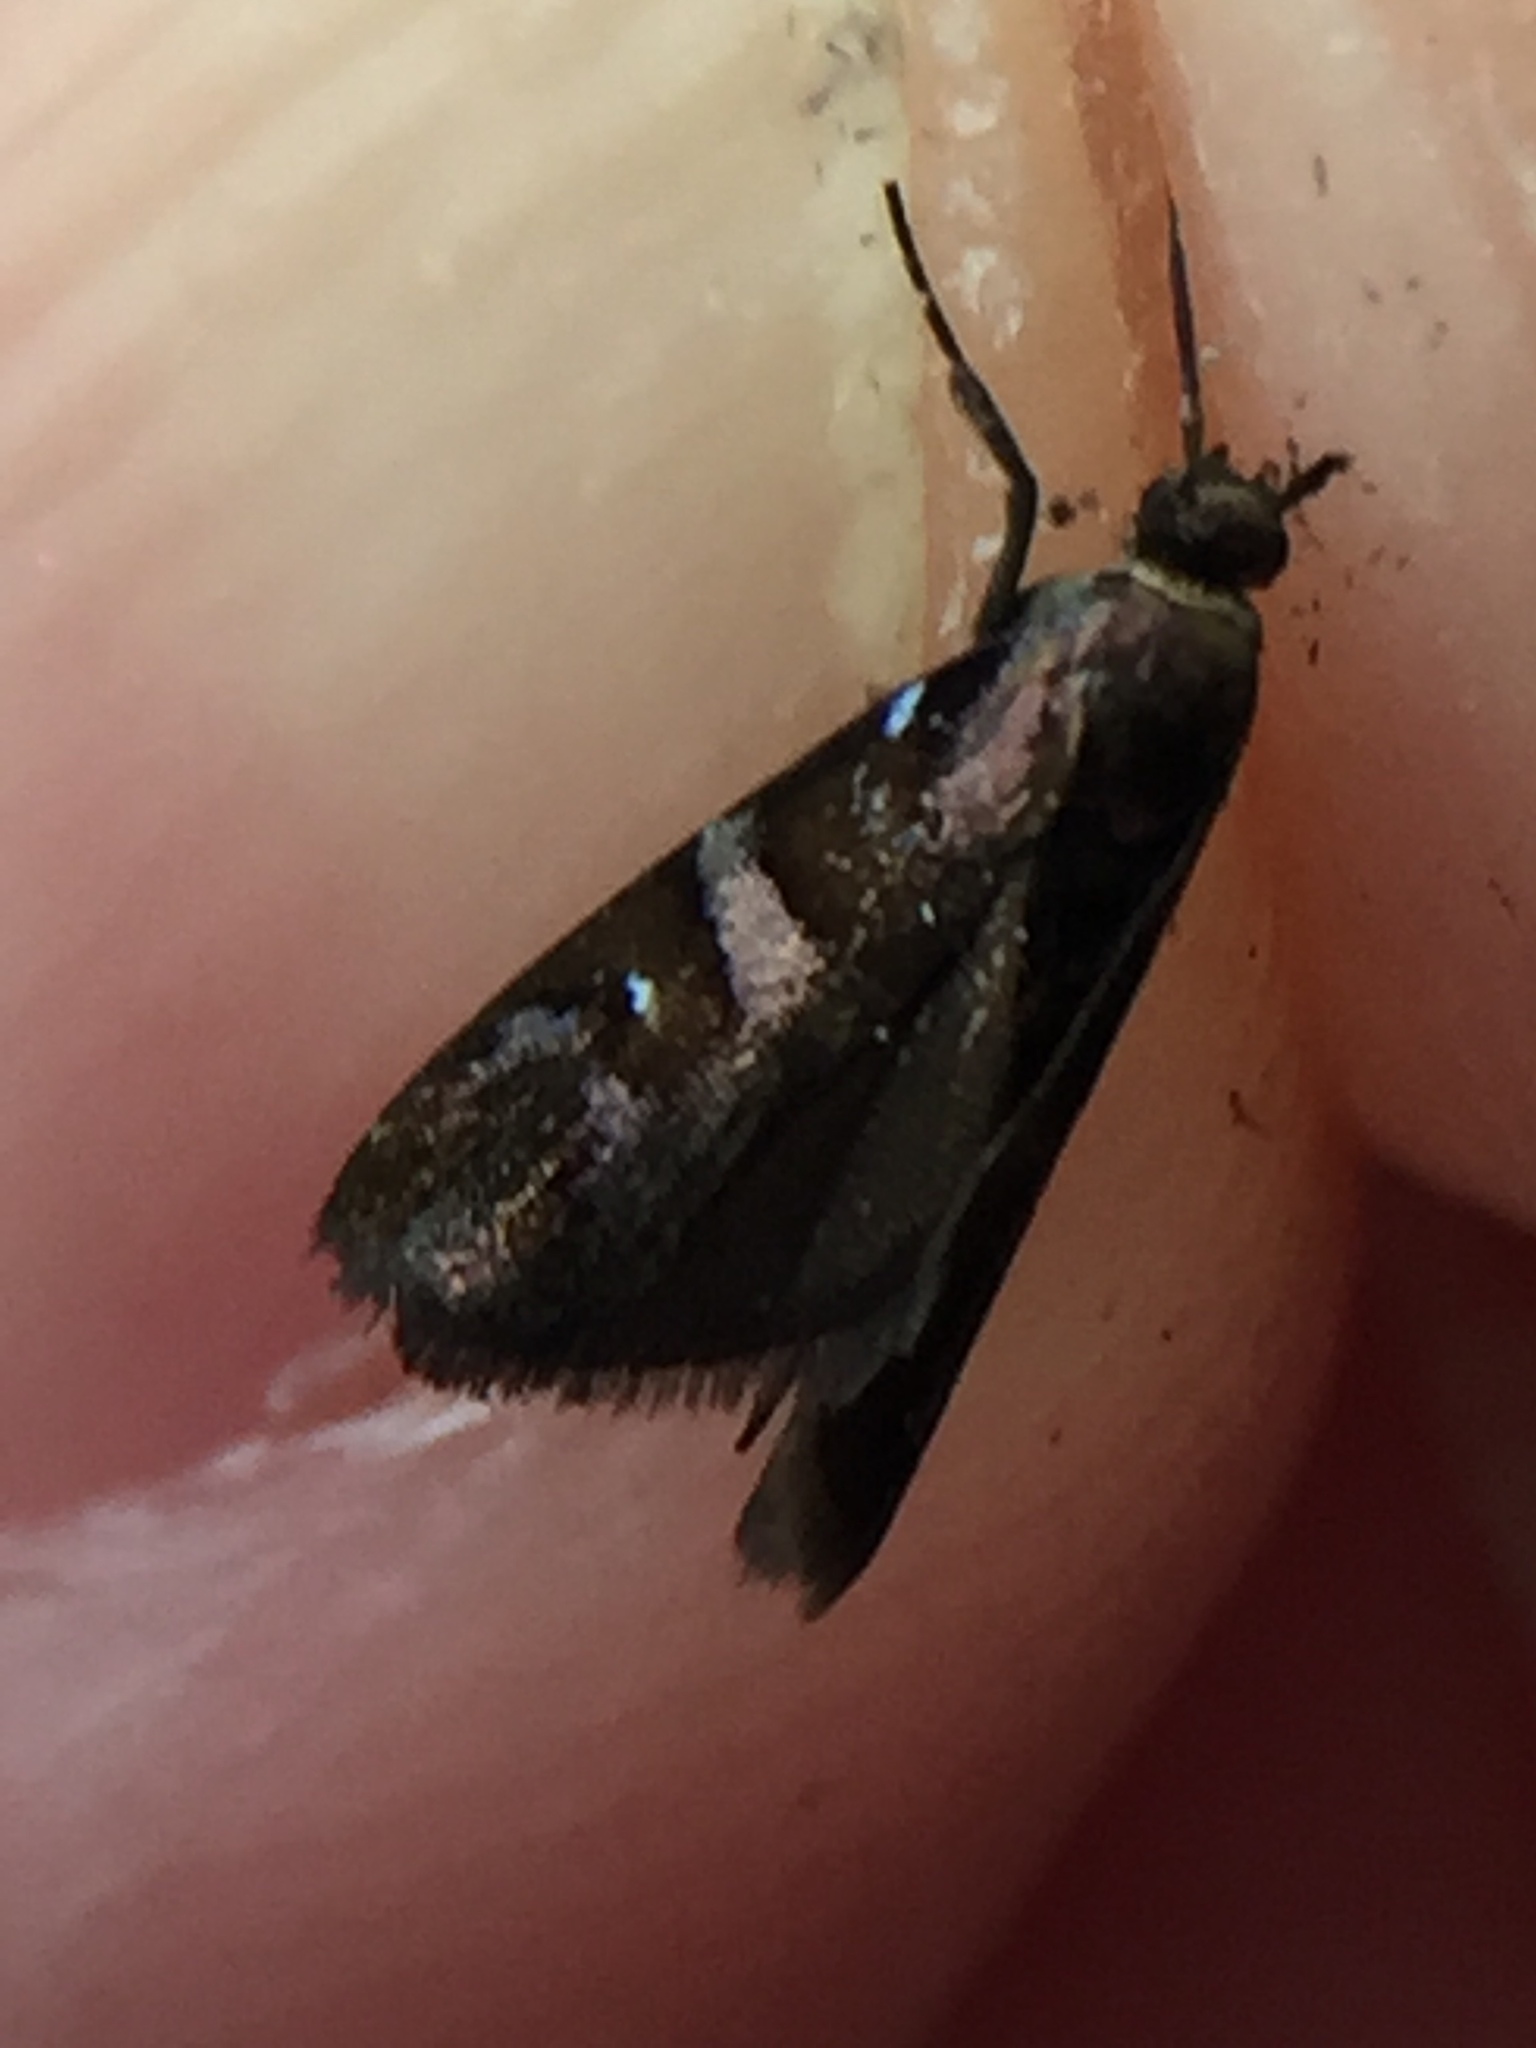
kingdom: Animalia
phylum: Arthropoda
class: Insecta
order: Lepidoptera
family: Oecophoridae
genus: Hierodoris
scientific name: Hierodoris iophanes
